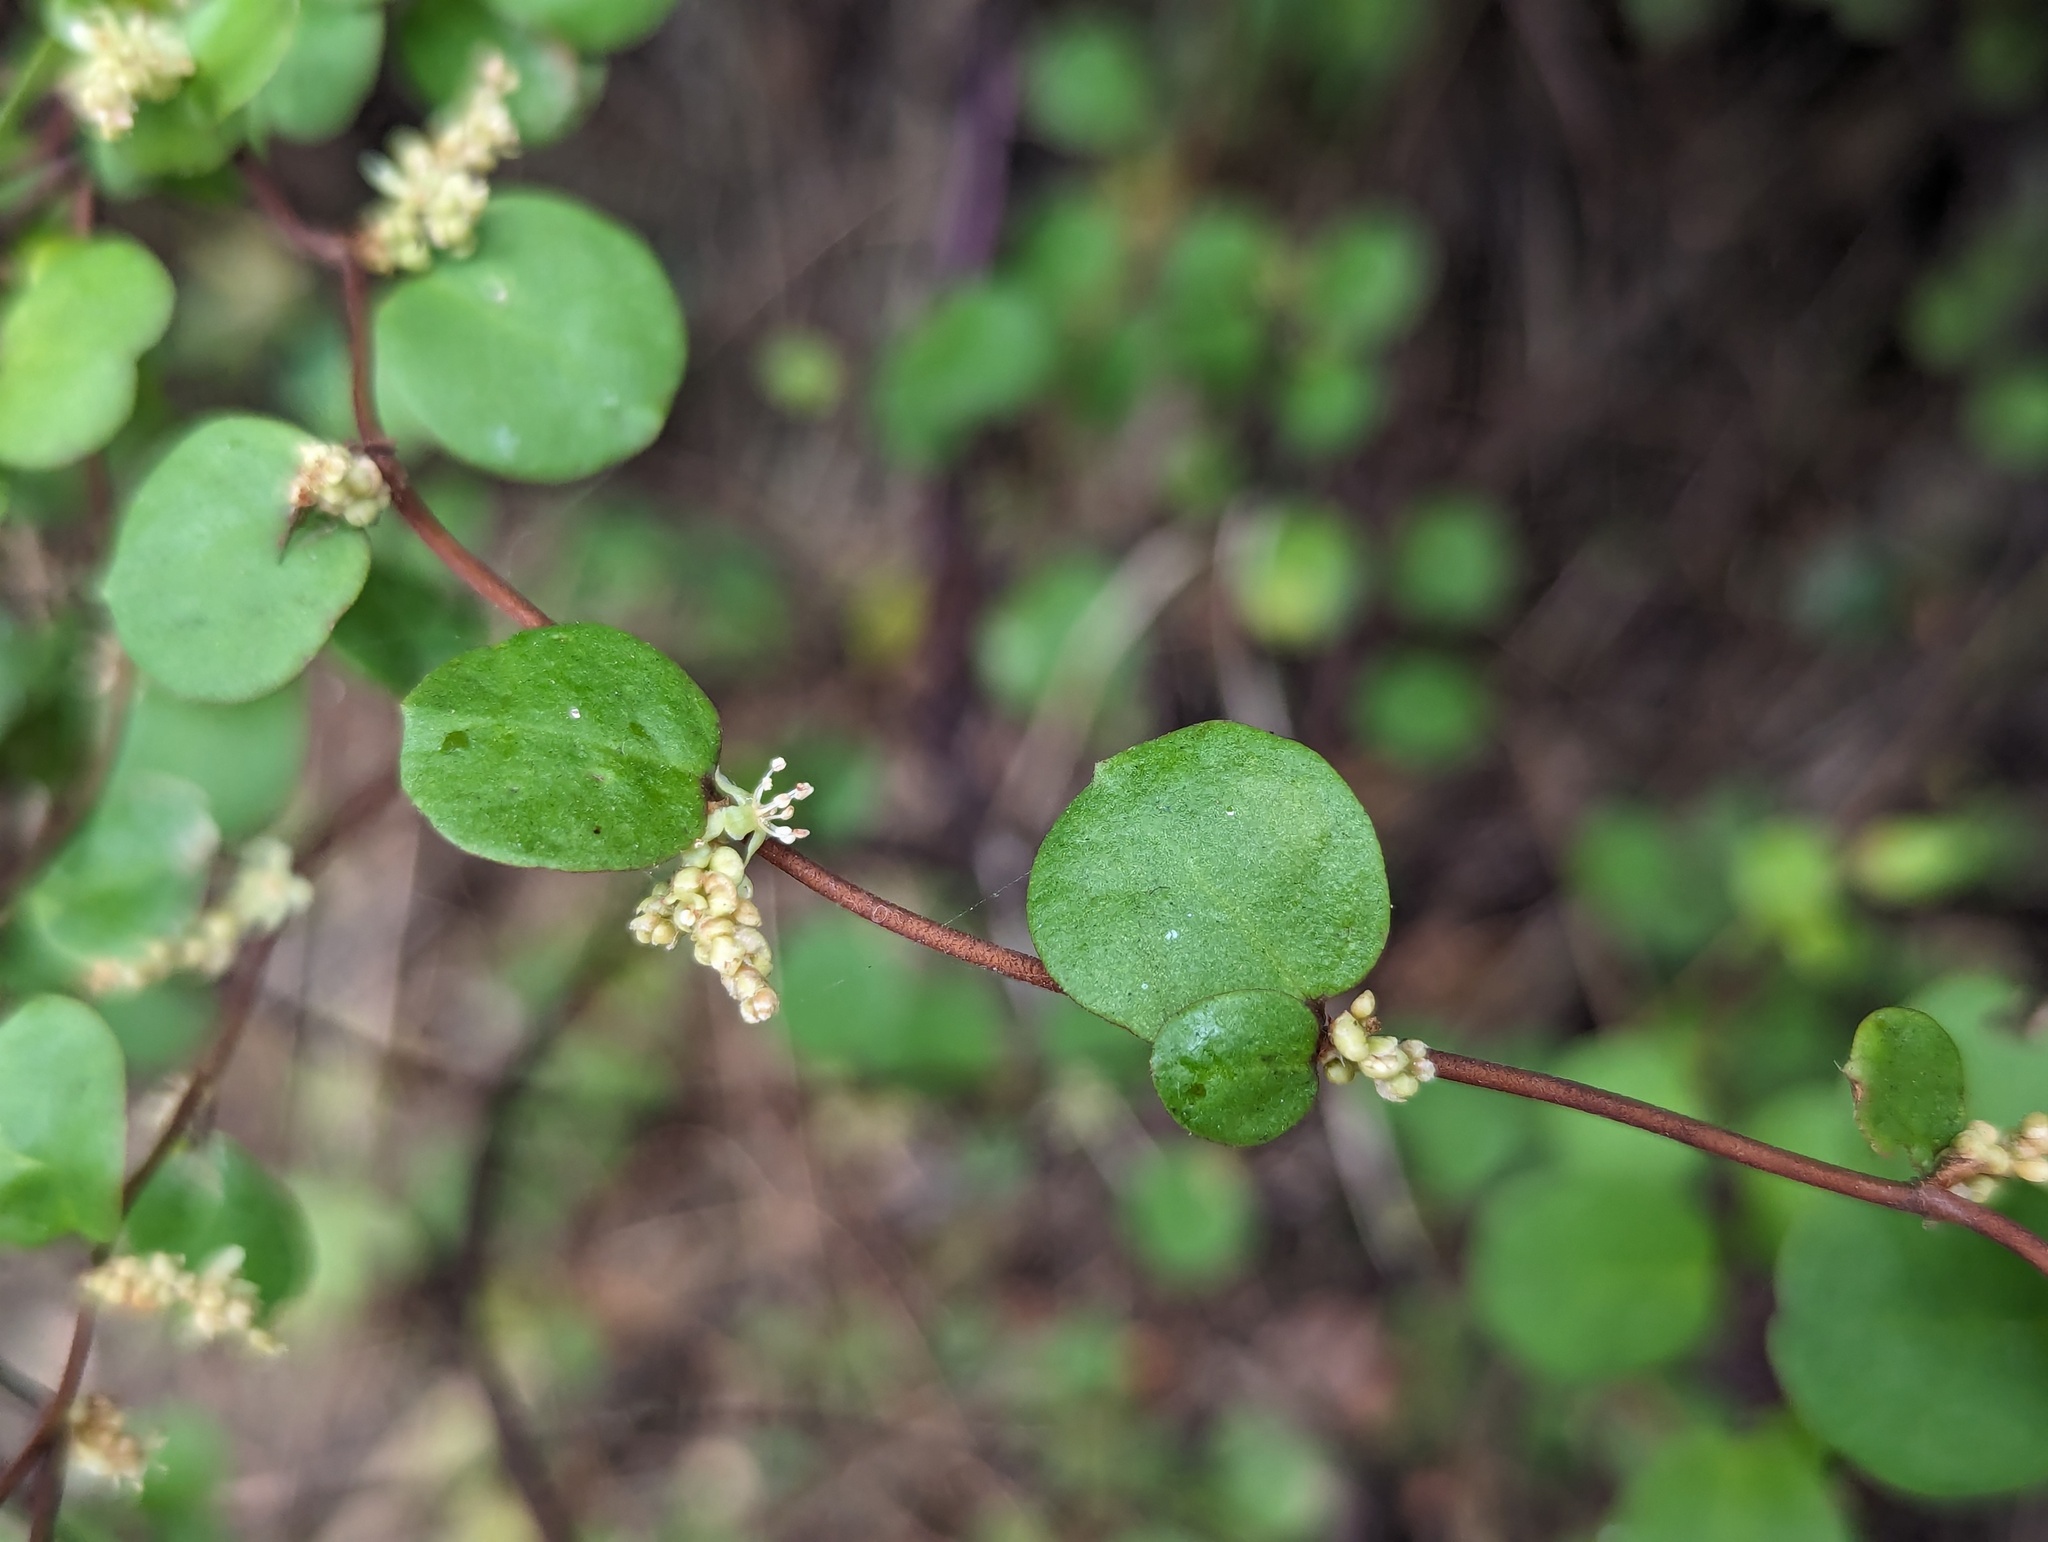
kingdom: Plantae
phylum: Tracheophyta
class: Magnoliopsida
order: Caryophyllales
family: Polygonaceae
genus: Muehlenbeckia
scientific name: Muehlenbeckia complexa
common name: Wireplant
